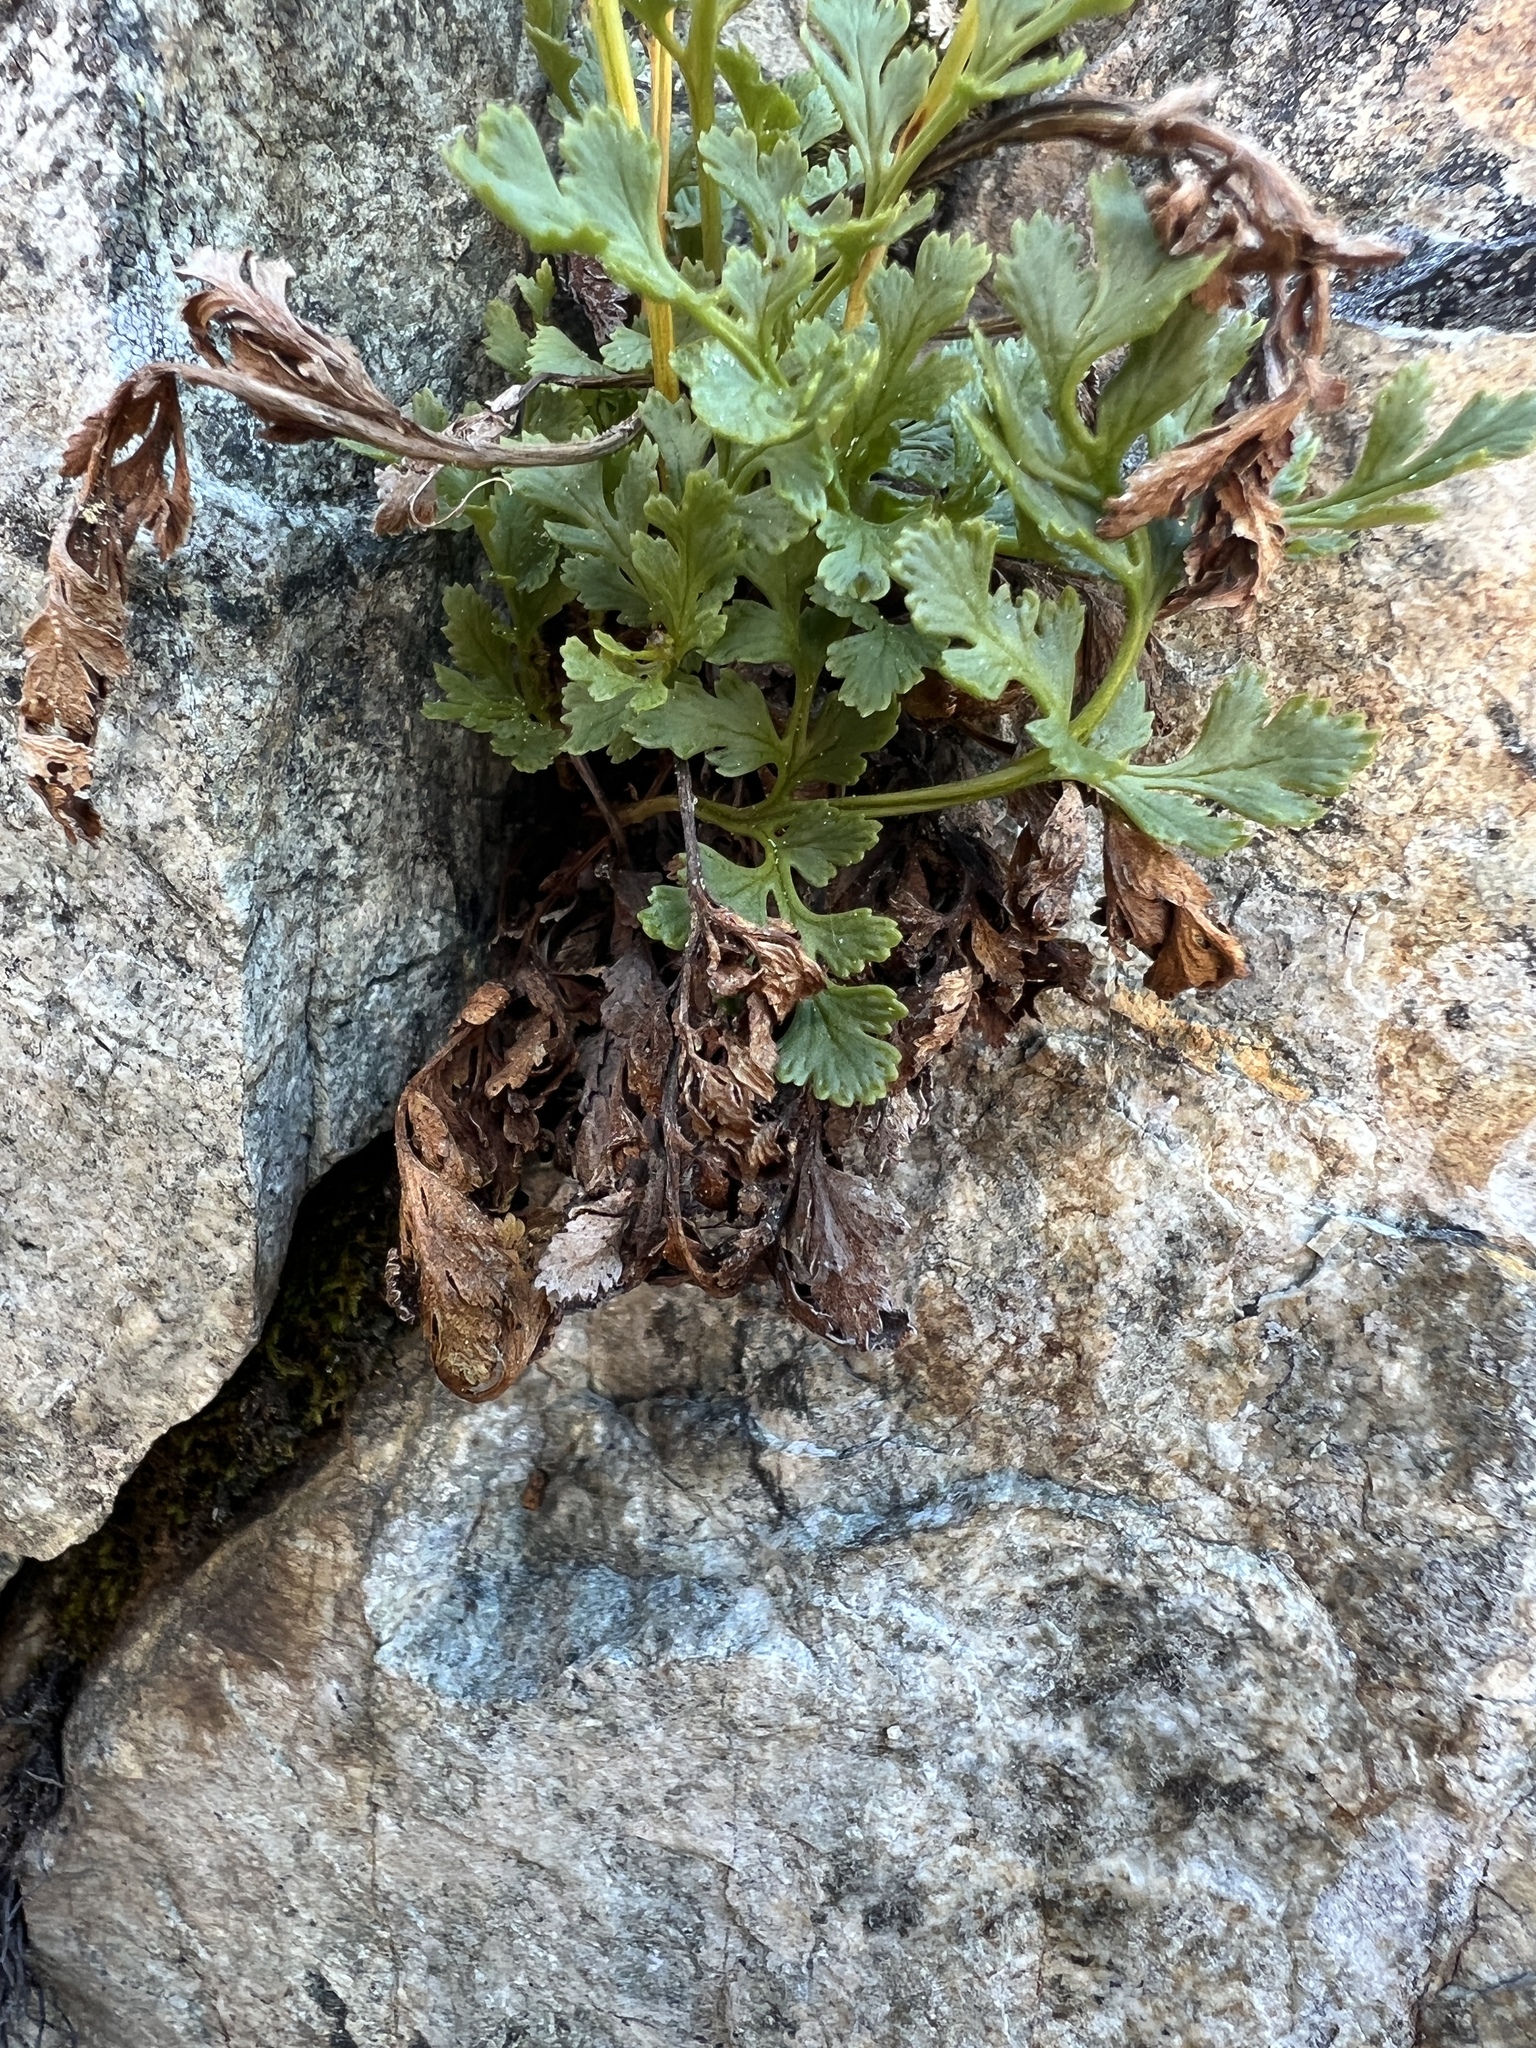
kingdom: Plantae
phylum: Tracheophyta
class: Polypodiopsida
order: Polypodiales
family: Pteridaceae
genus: Cryptogramma
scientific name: Cryptogramma acrostichoides
